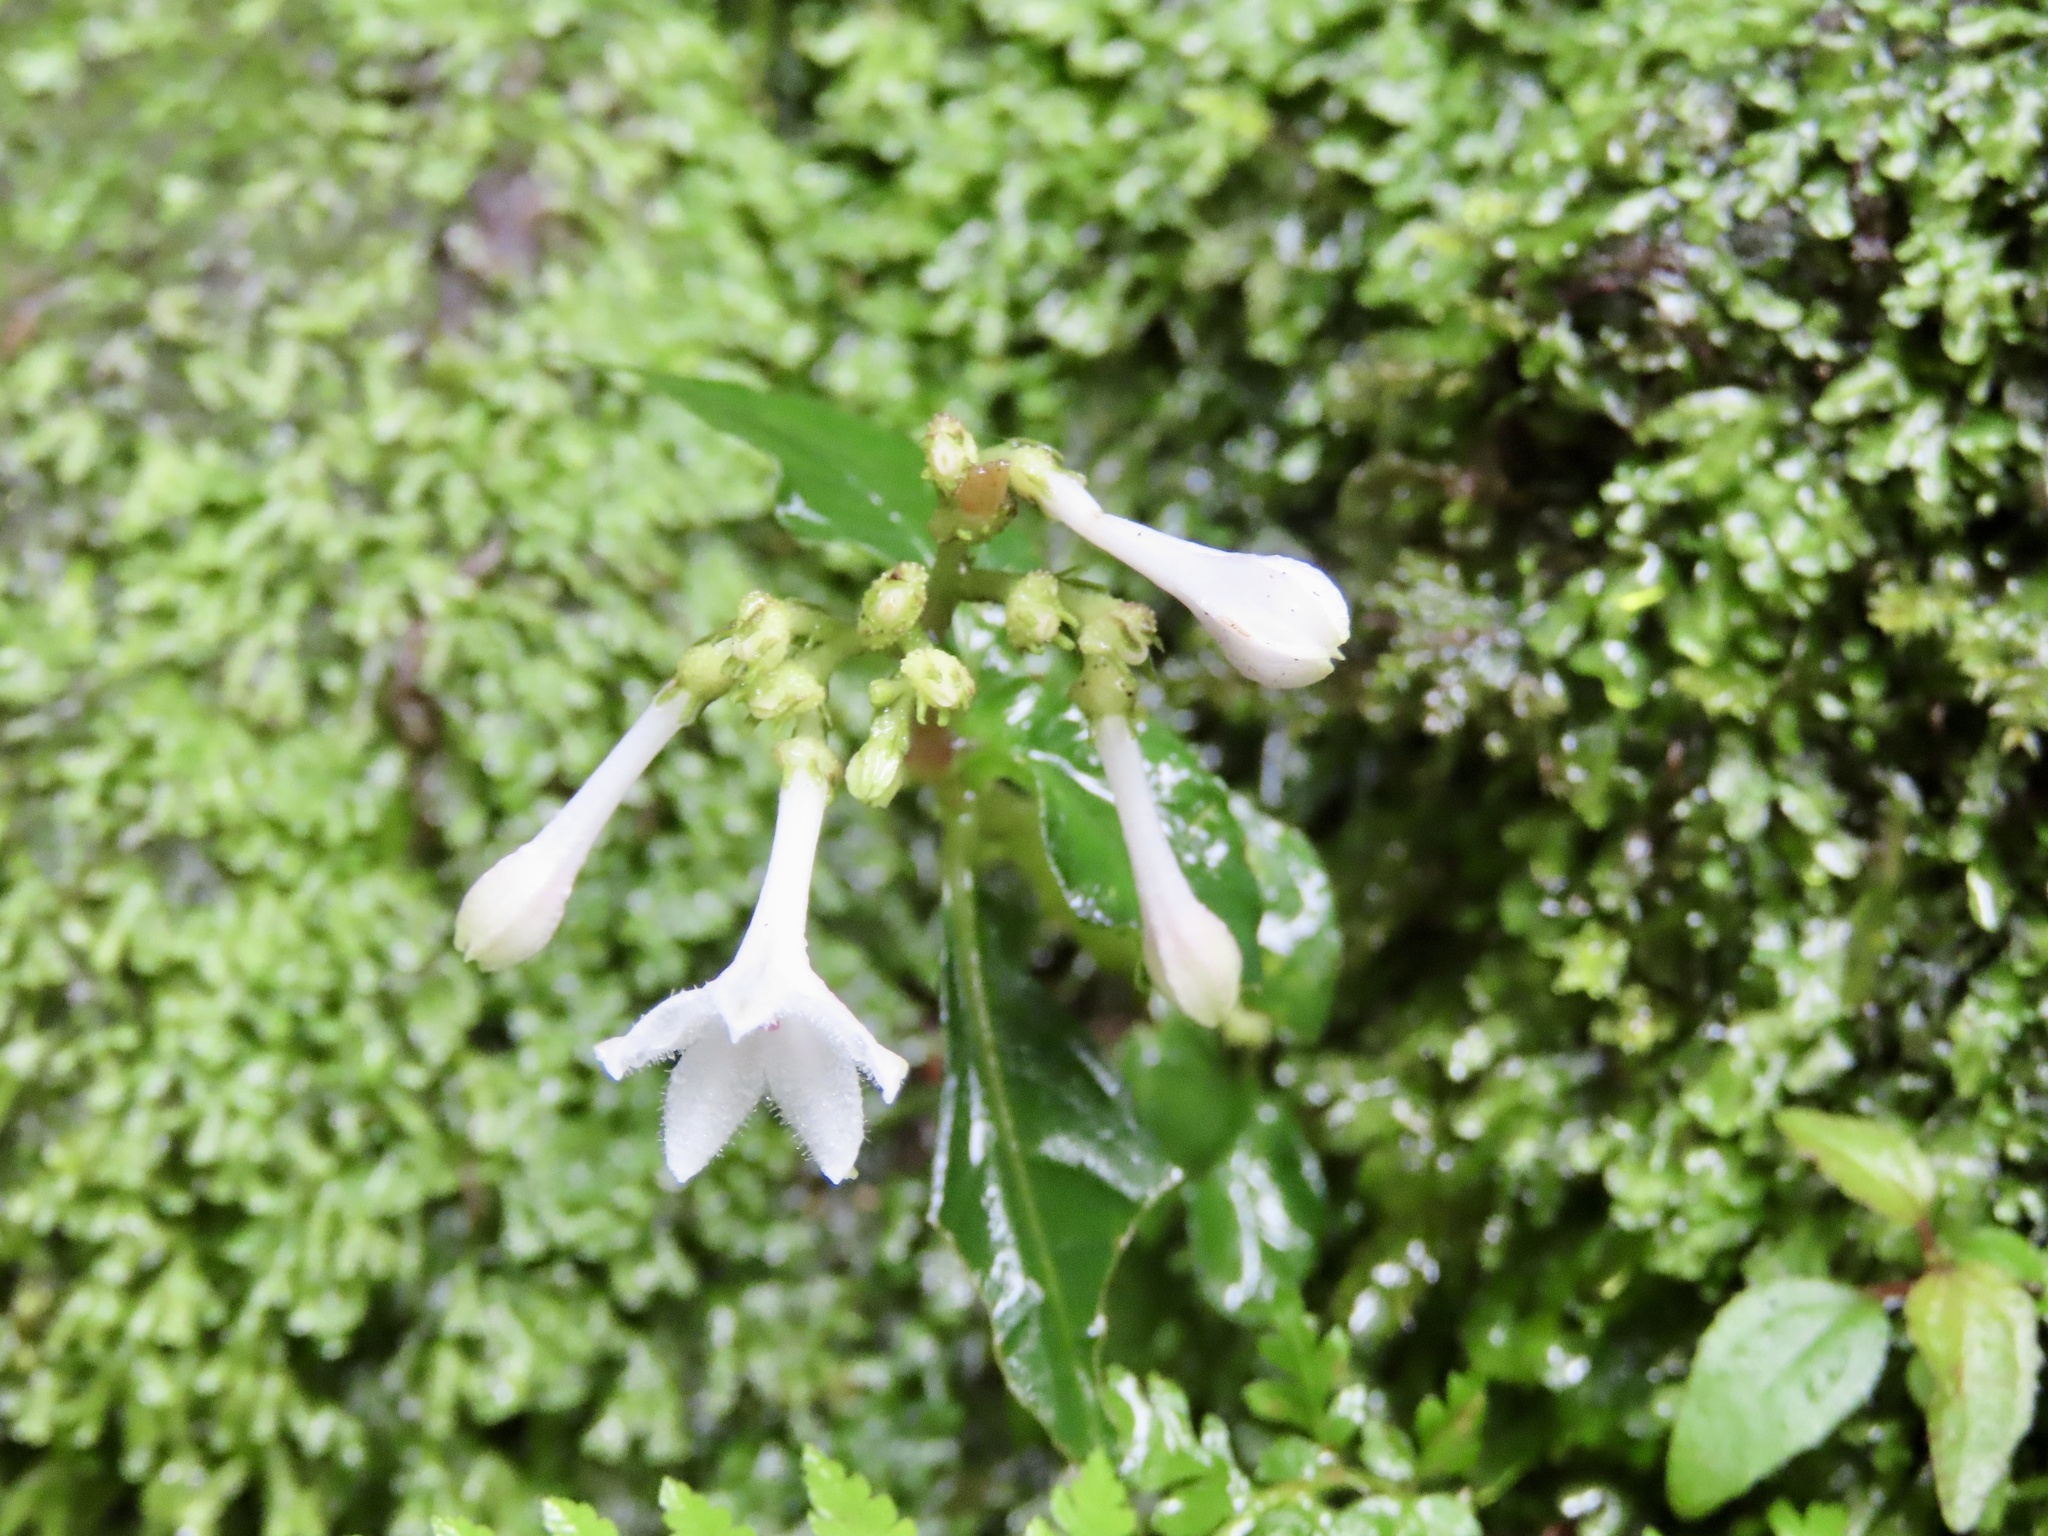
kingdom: Plantae
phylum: Tracheophyta
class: Magnoliopsida
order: Gentianales
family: Rubiaceae
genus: Ophiorrhiza
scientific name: Ophiorrhiza japonica
